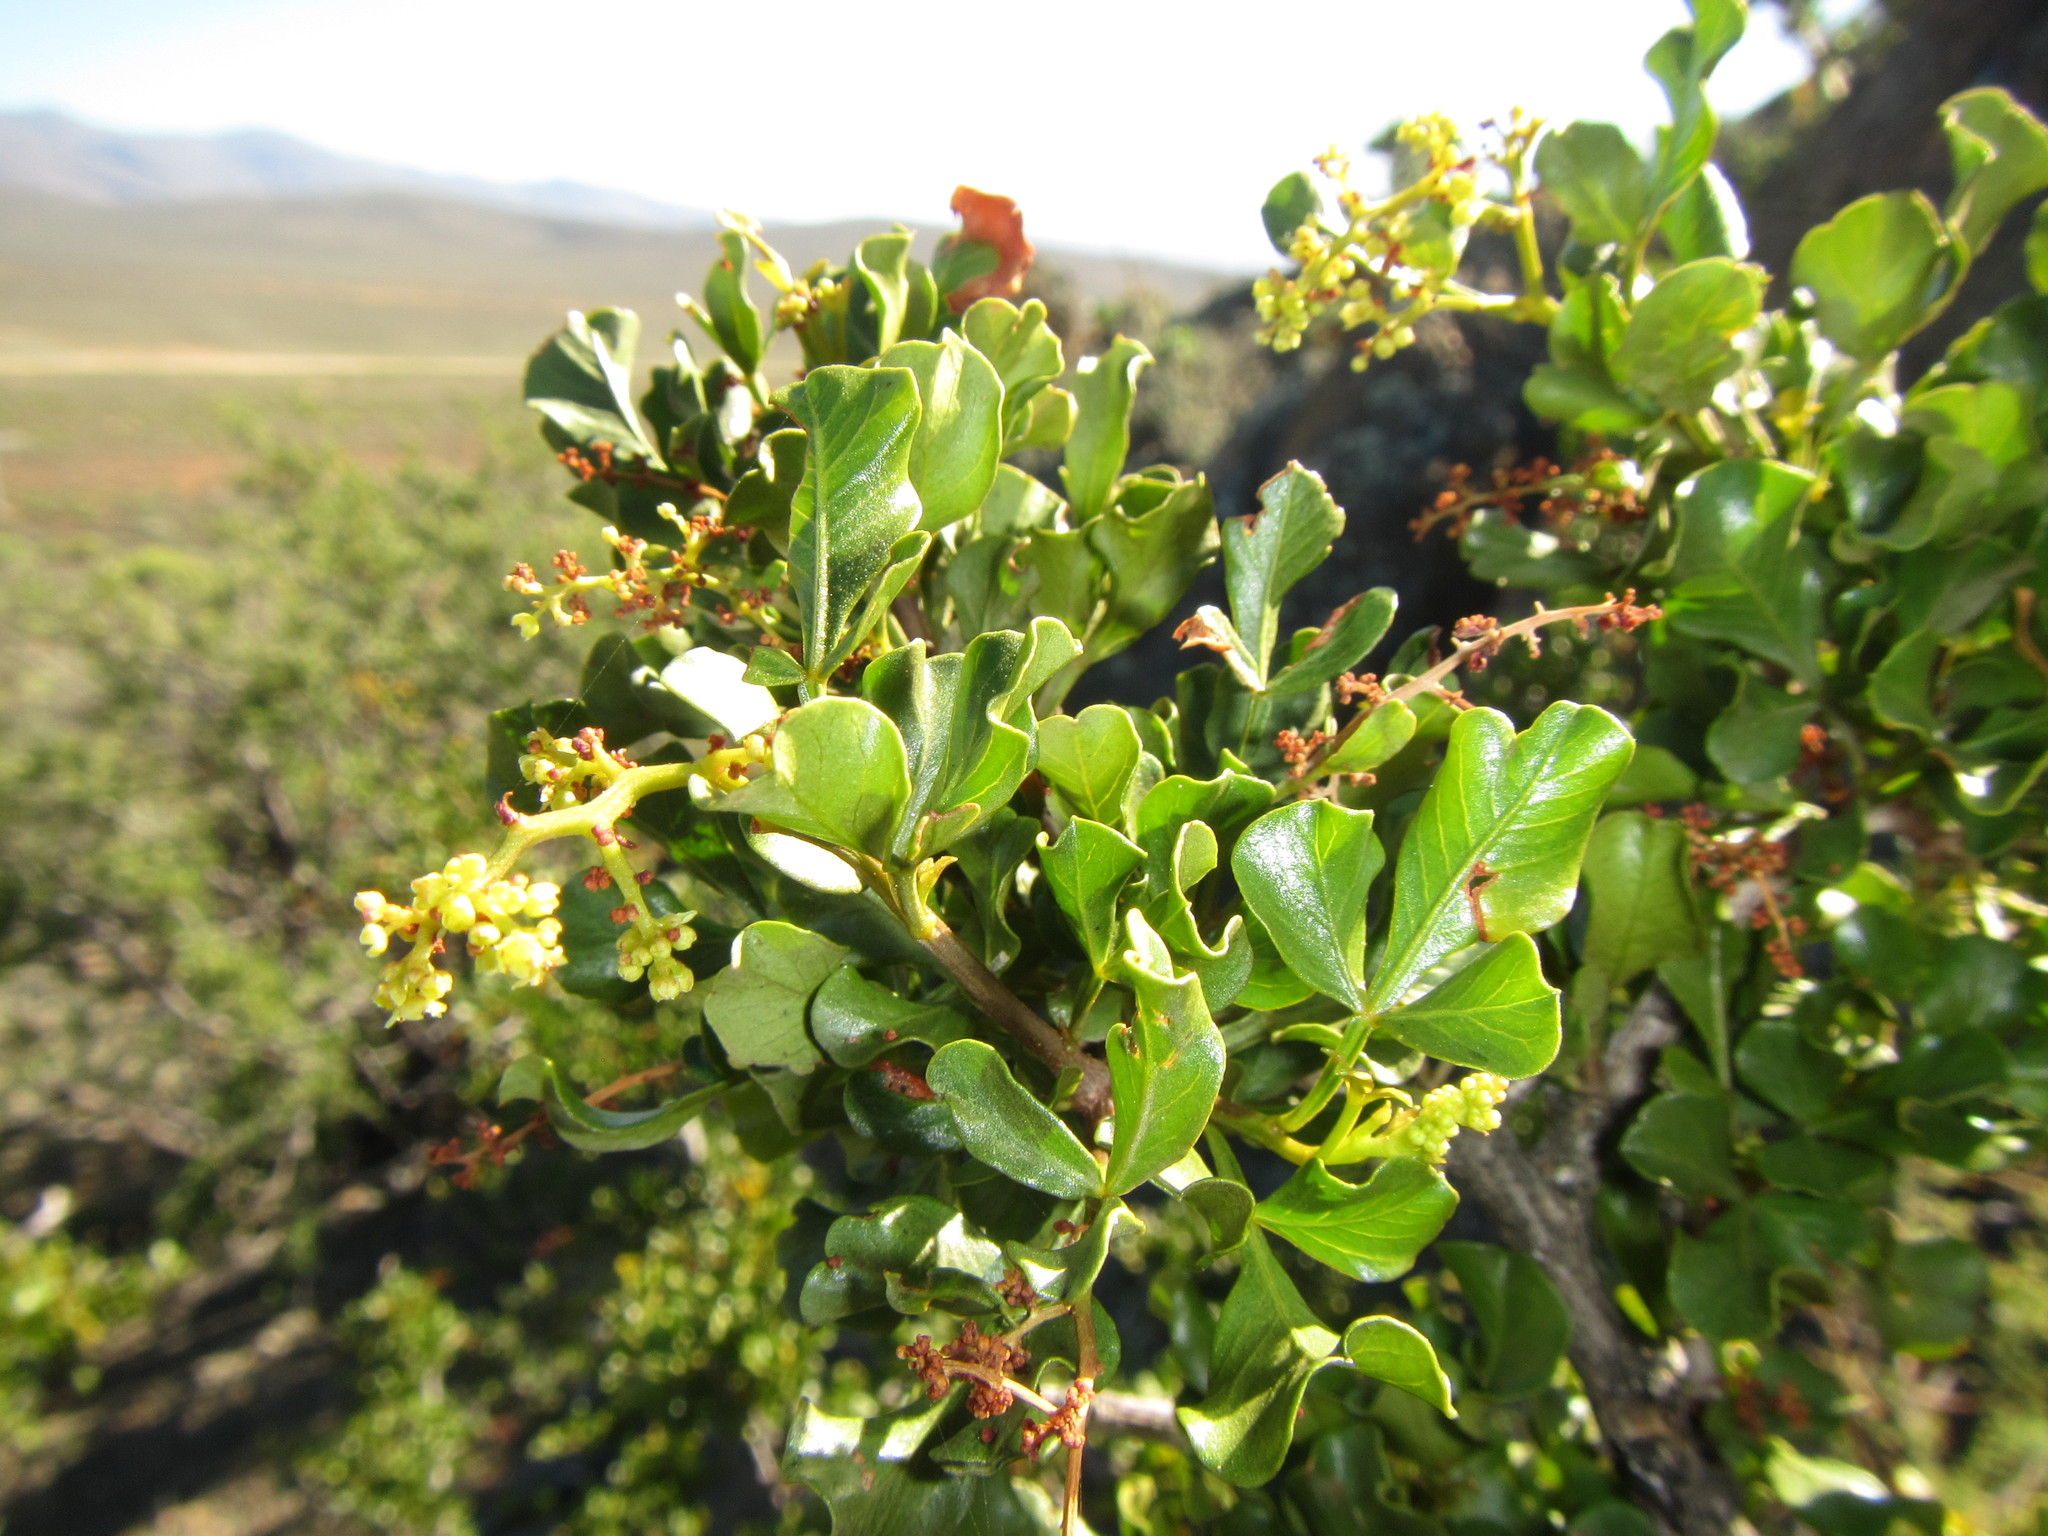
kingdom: Plantae
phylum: Tracheophyta
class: Magnoliopsida
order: Sapindales
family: Anacardiaceae
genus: Searsia
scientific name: Searsia undulata
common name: Namaqua kunibush
